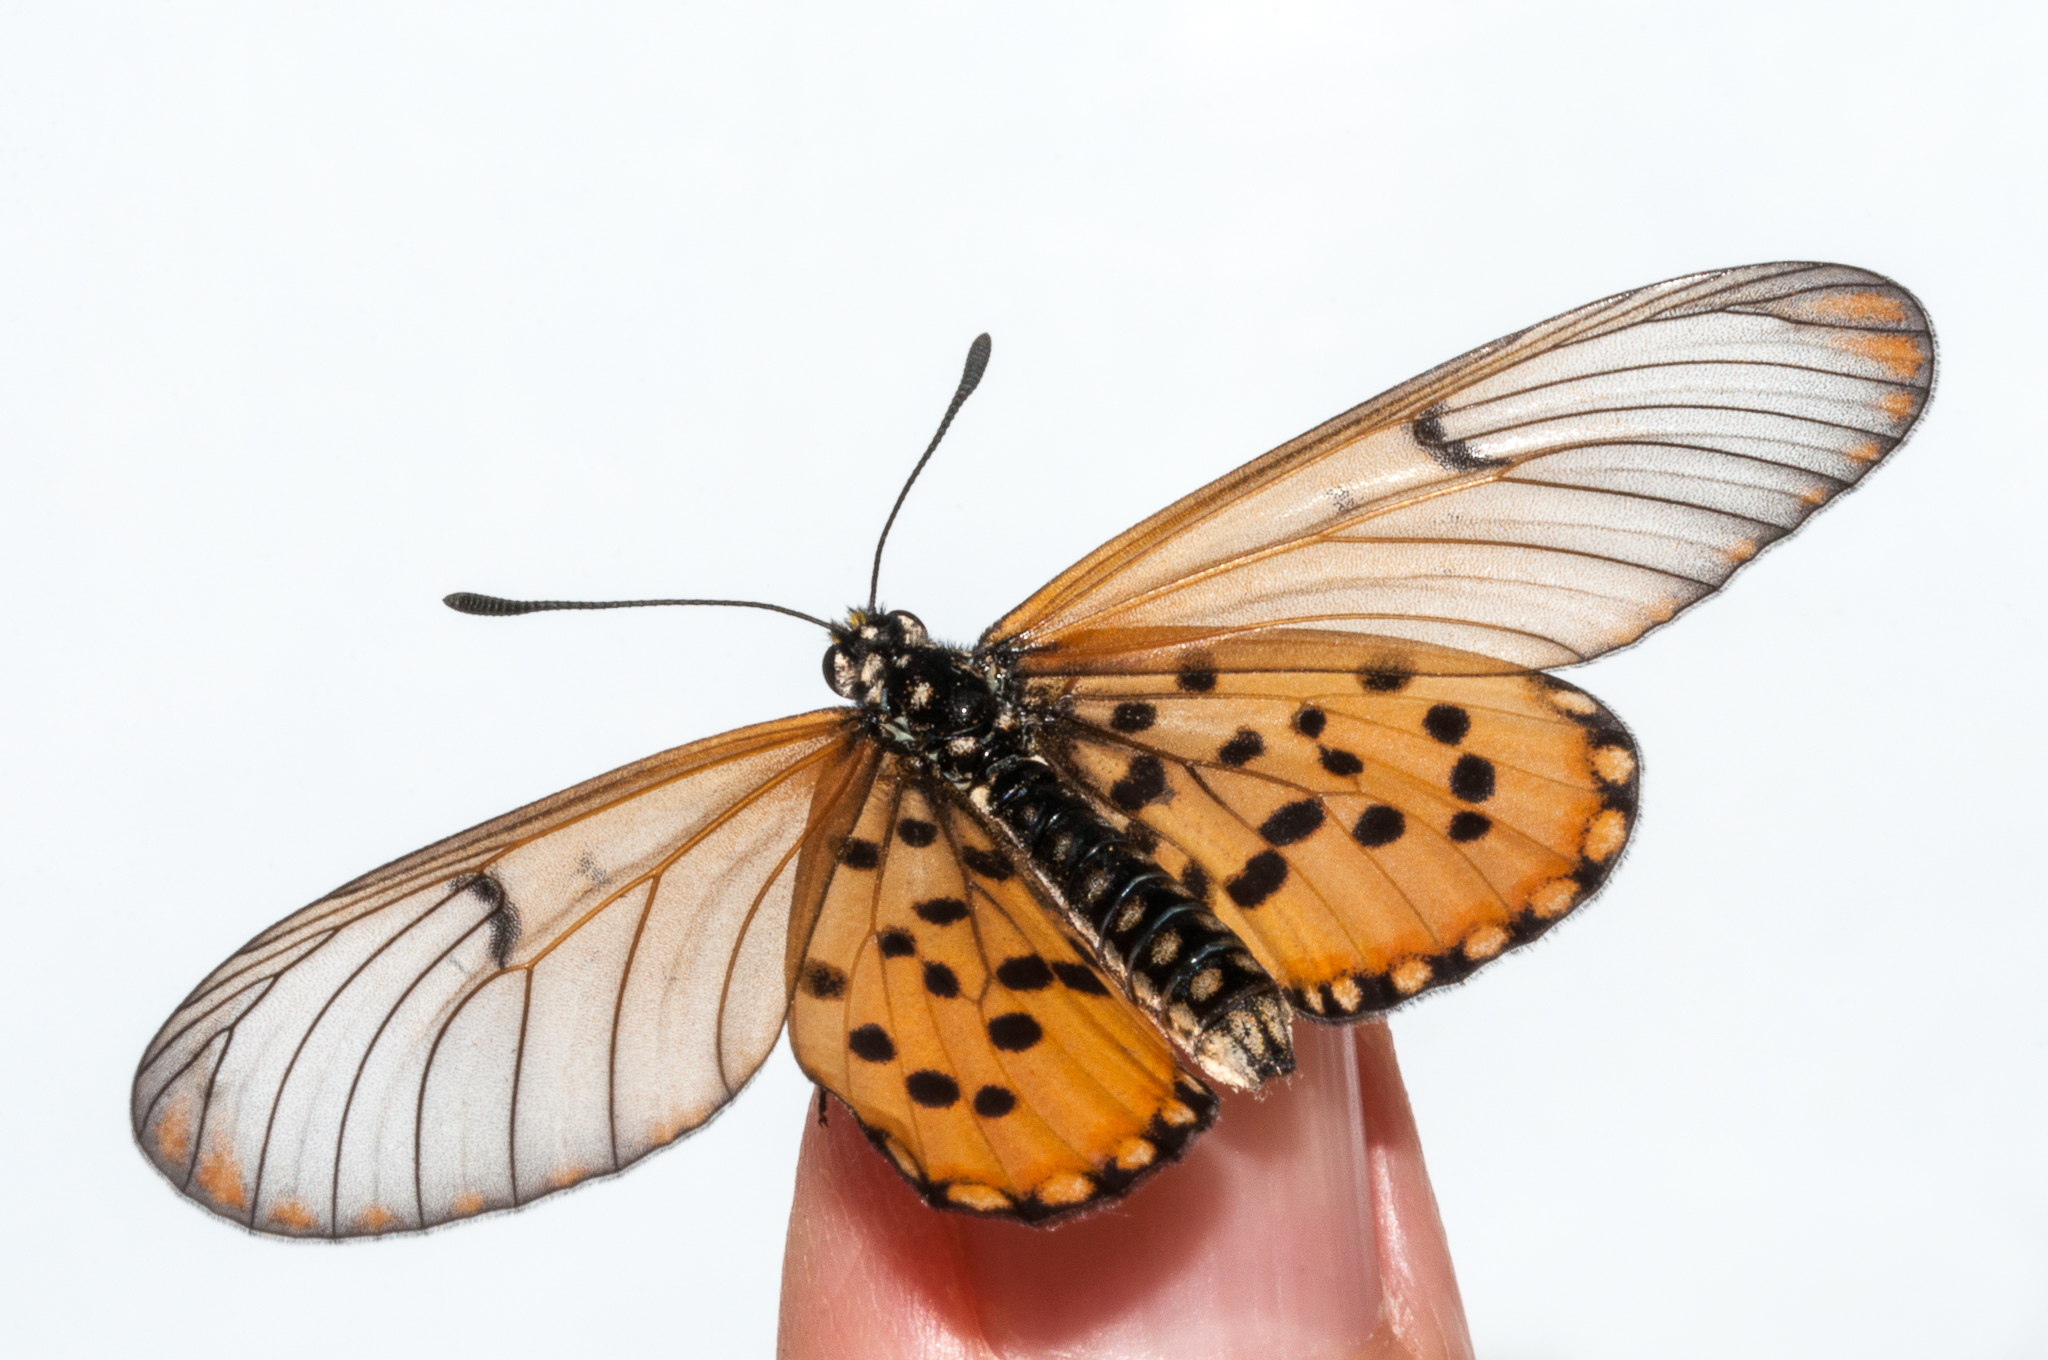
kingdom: Animalia
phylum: Arthropoda
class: Insecta
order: Lepidoptera
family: Nymphalidae
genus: Acraea
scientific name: Acraea horta
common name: Garden acraea
